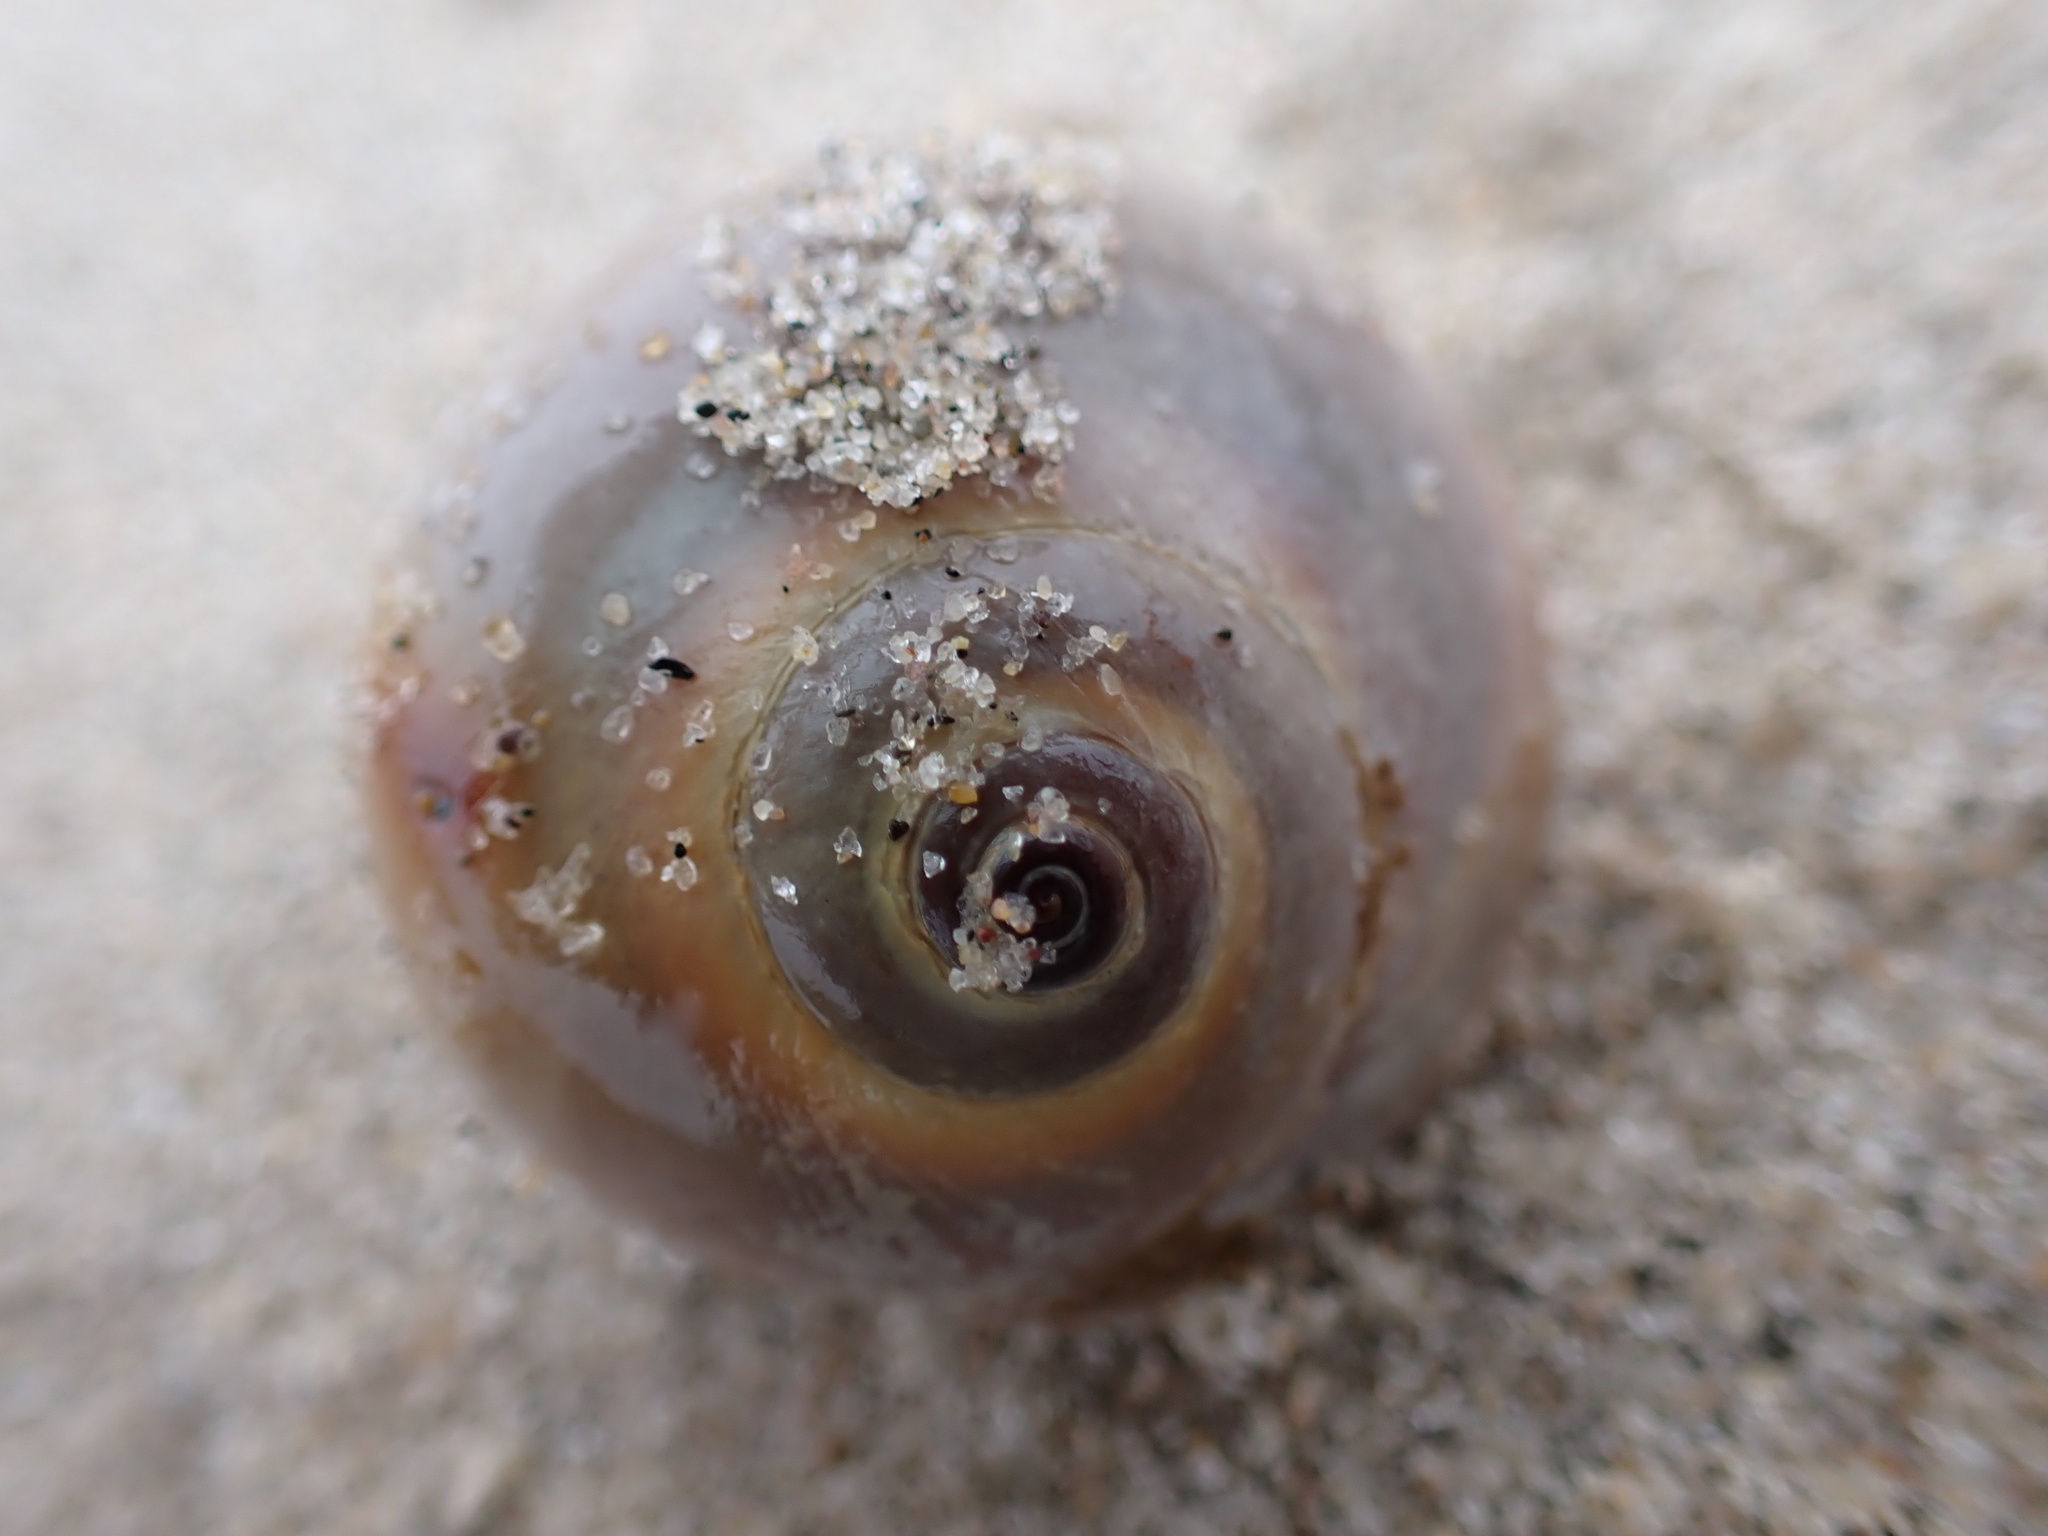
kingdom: Animalia
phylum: Mollusca
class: Gastropoda
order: Littorinimorpha
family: Naticidae
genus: Neverita
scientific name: Neverita duplicata
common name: Lobed moonsnail
